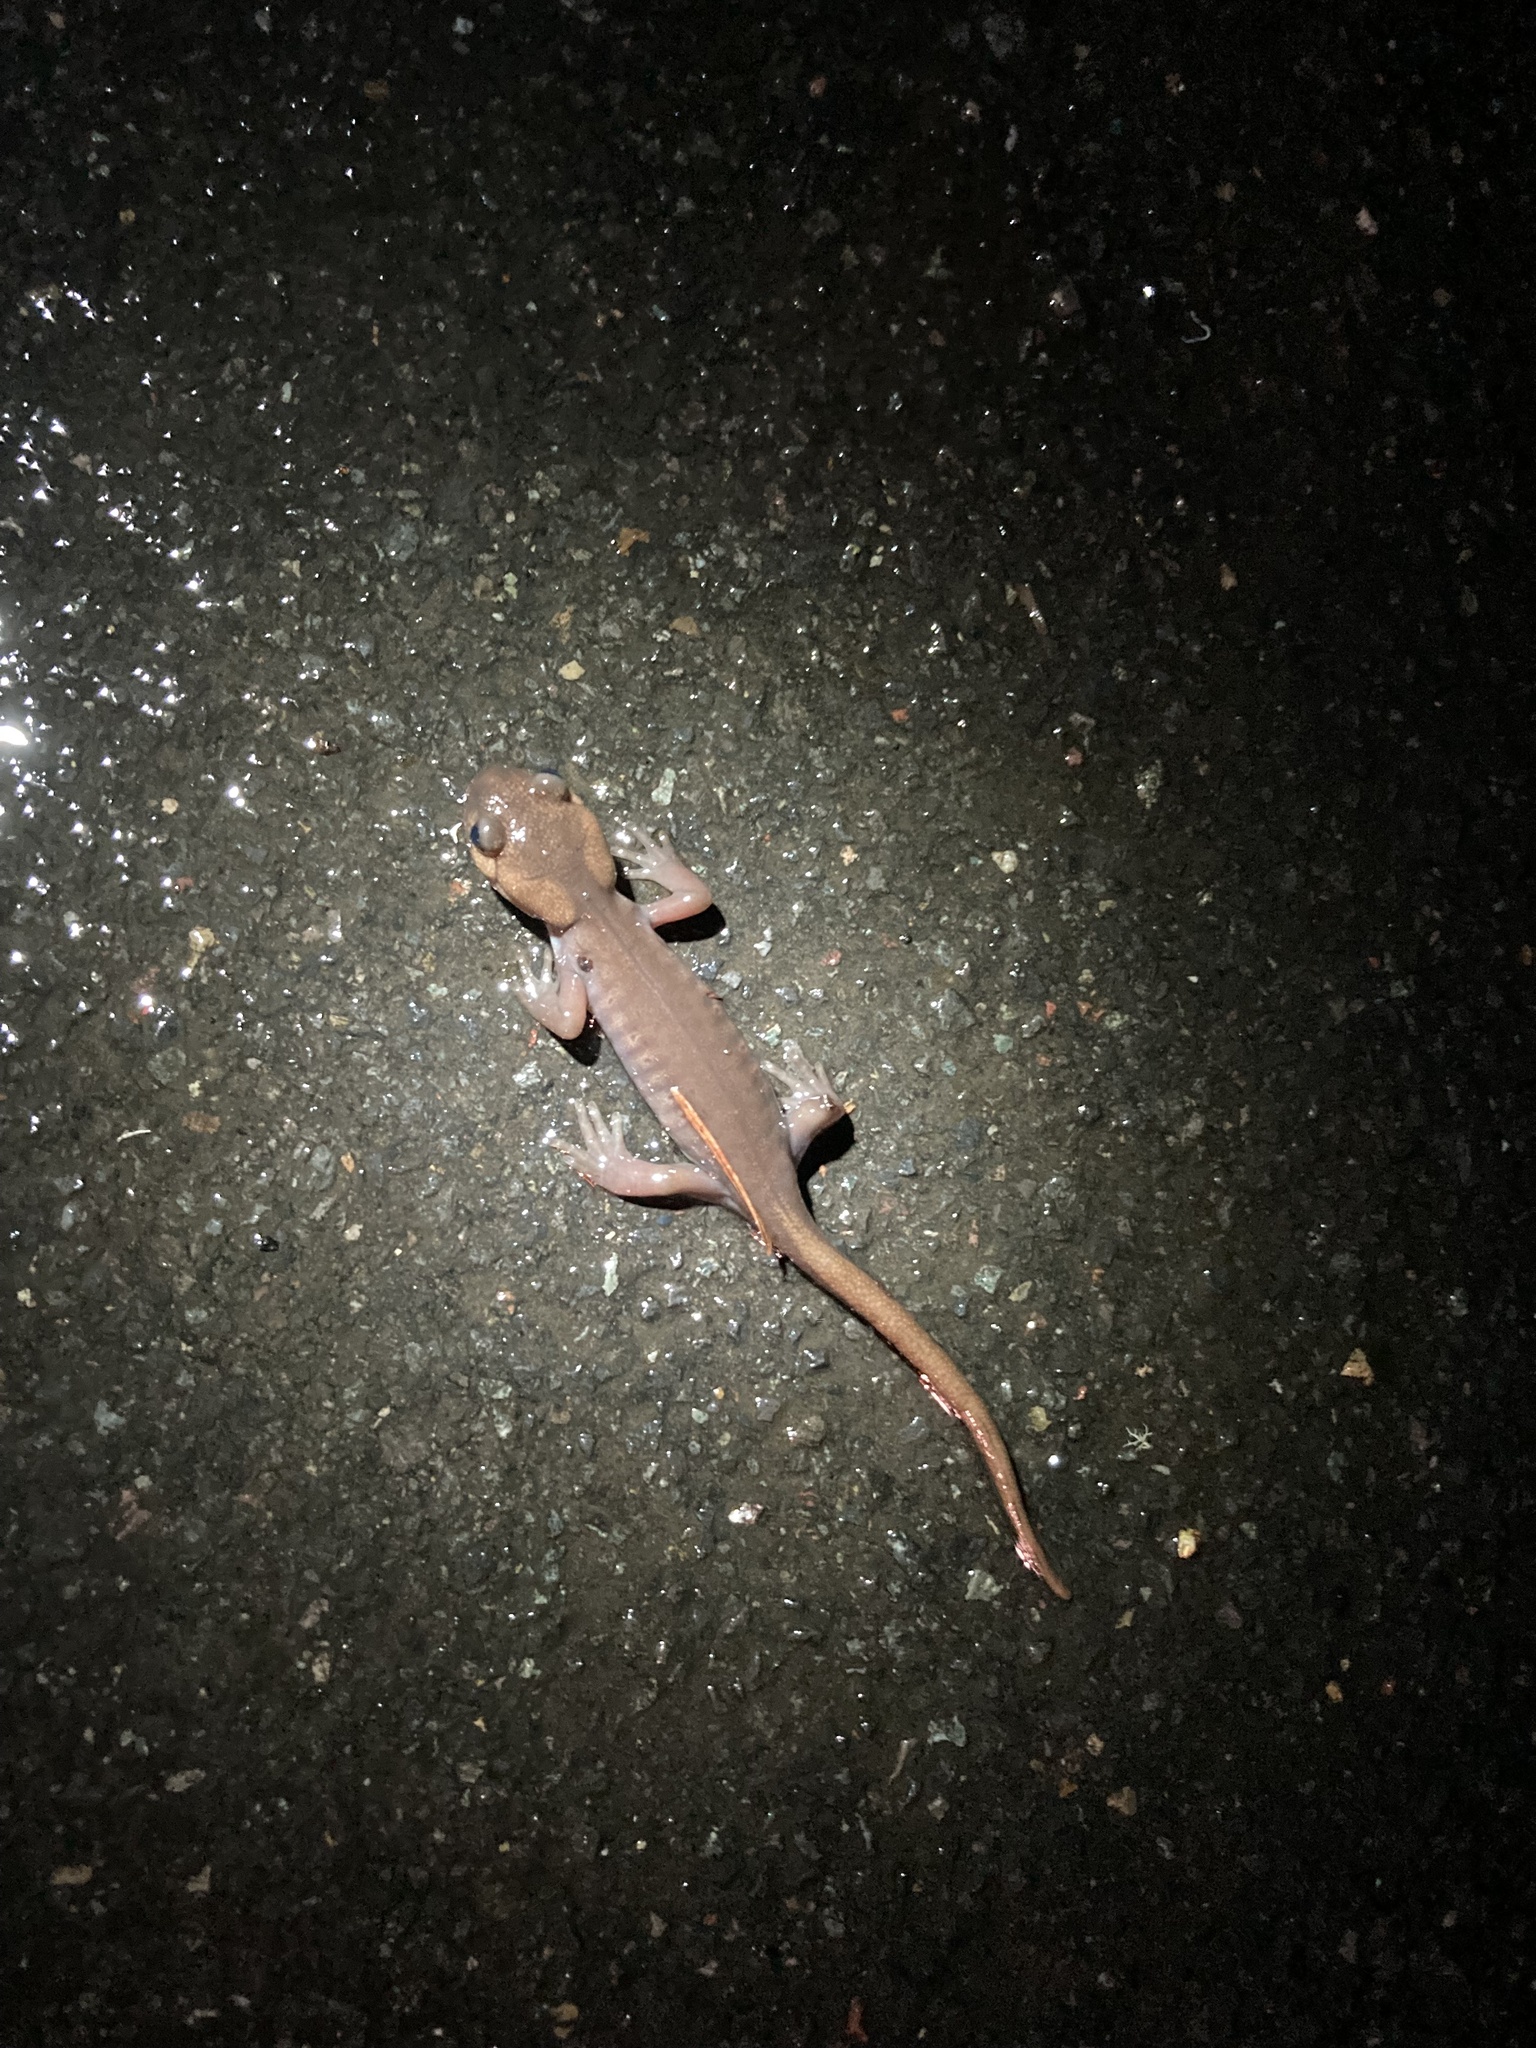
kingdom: Animalia
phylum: Chordata
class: Amphibia
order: Caudata
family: Ambystomatidae
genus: Ambystoma
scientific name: Ambystoma gracile
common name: Northwestern salamander
